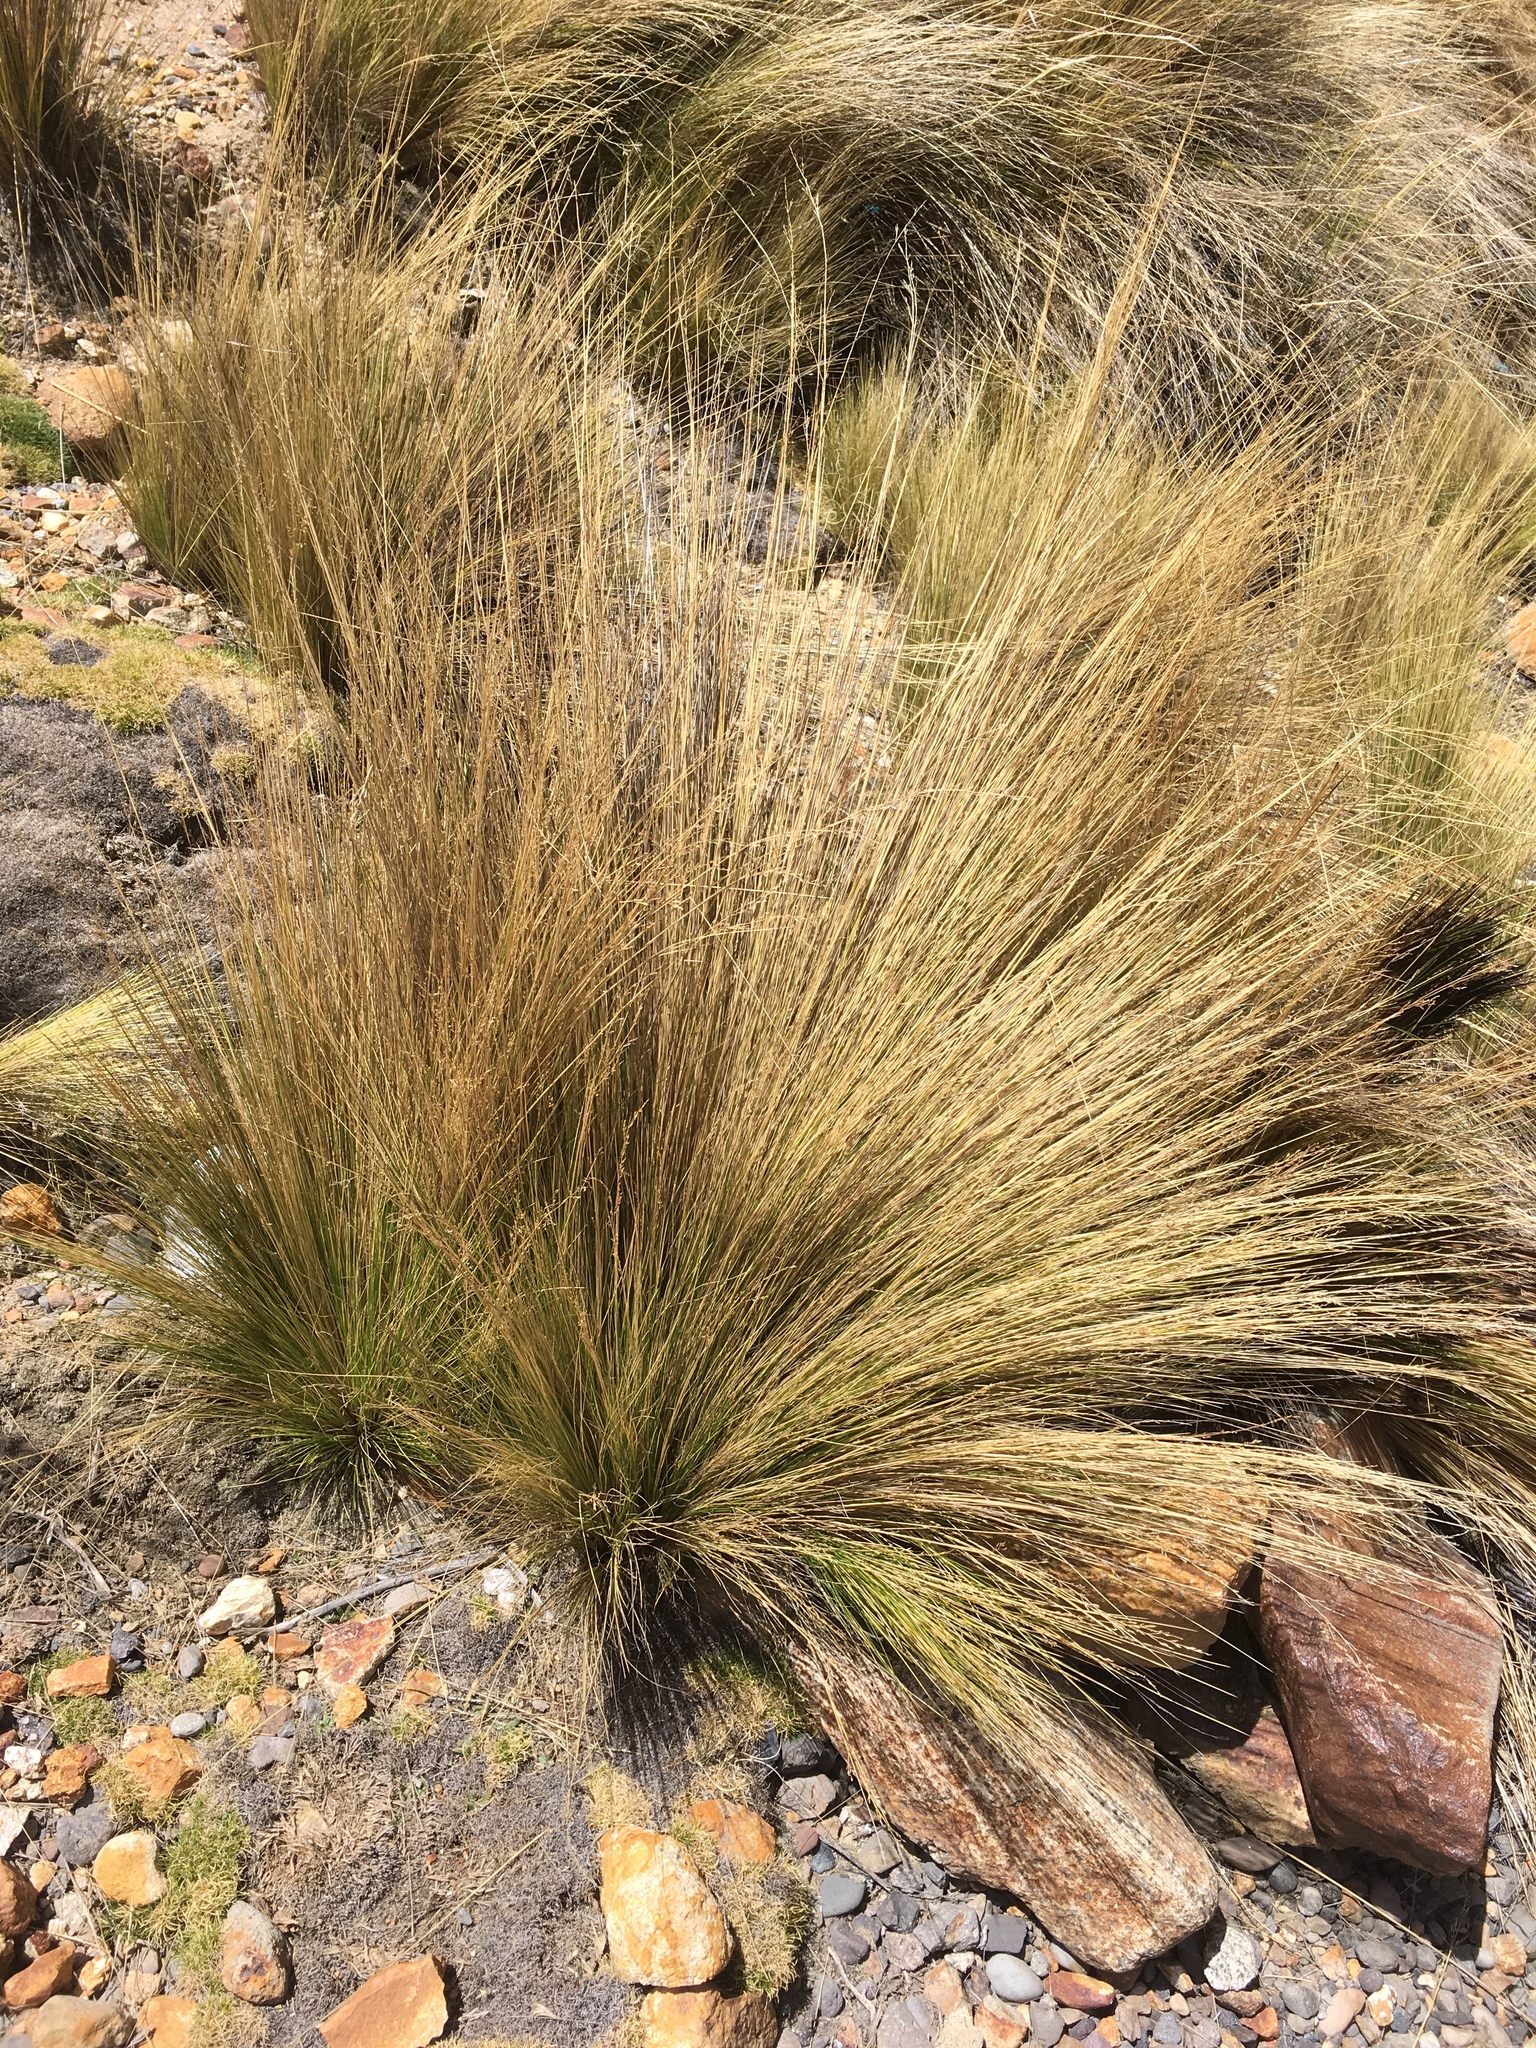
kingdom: Plantae
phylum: Tracheophyta
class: Liliopsida
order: Poales
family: Poaceae
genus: Jarava
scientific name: Jarava ichu
